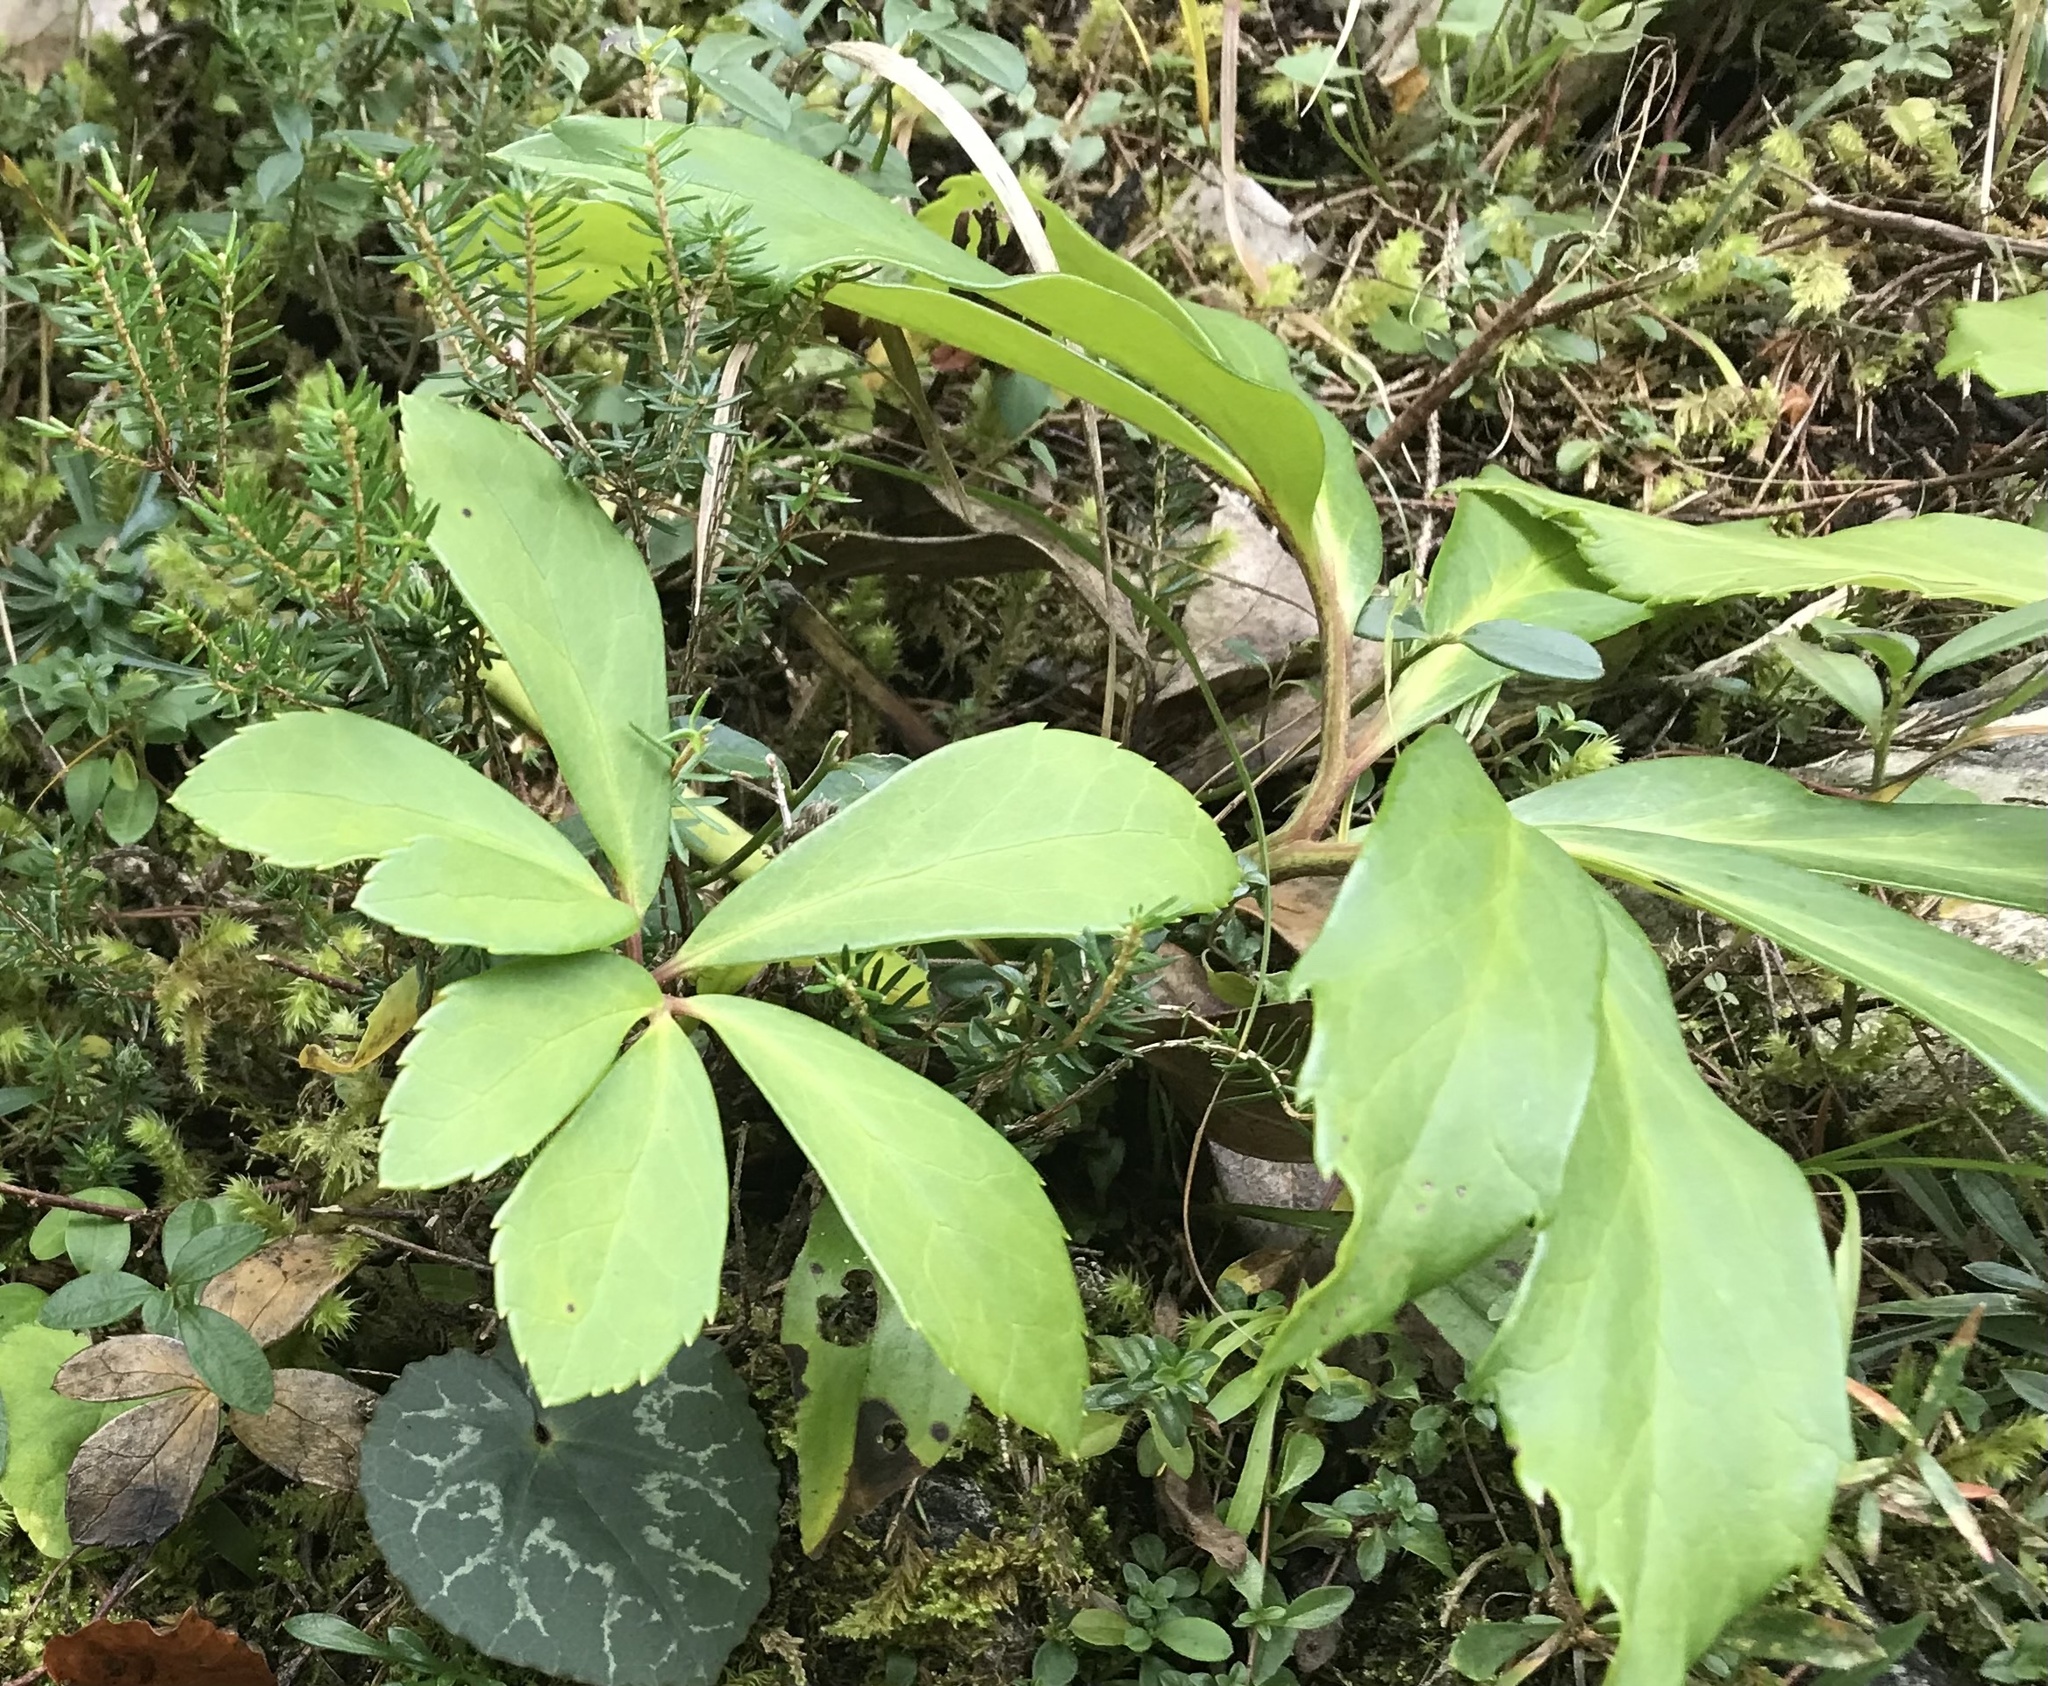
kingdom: Plantae
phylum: Tracheophyta
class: Magnoliopsida
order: Ranunculales
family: Ranunculaceae
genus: Helleborus
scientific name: Helleborus niger
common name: Black hellebore
